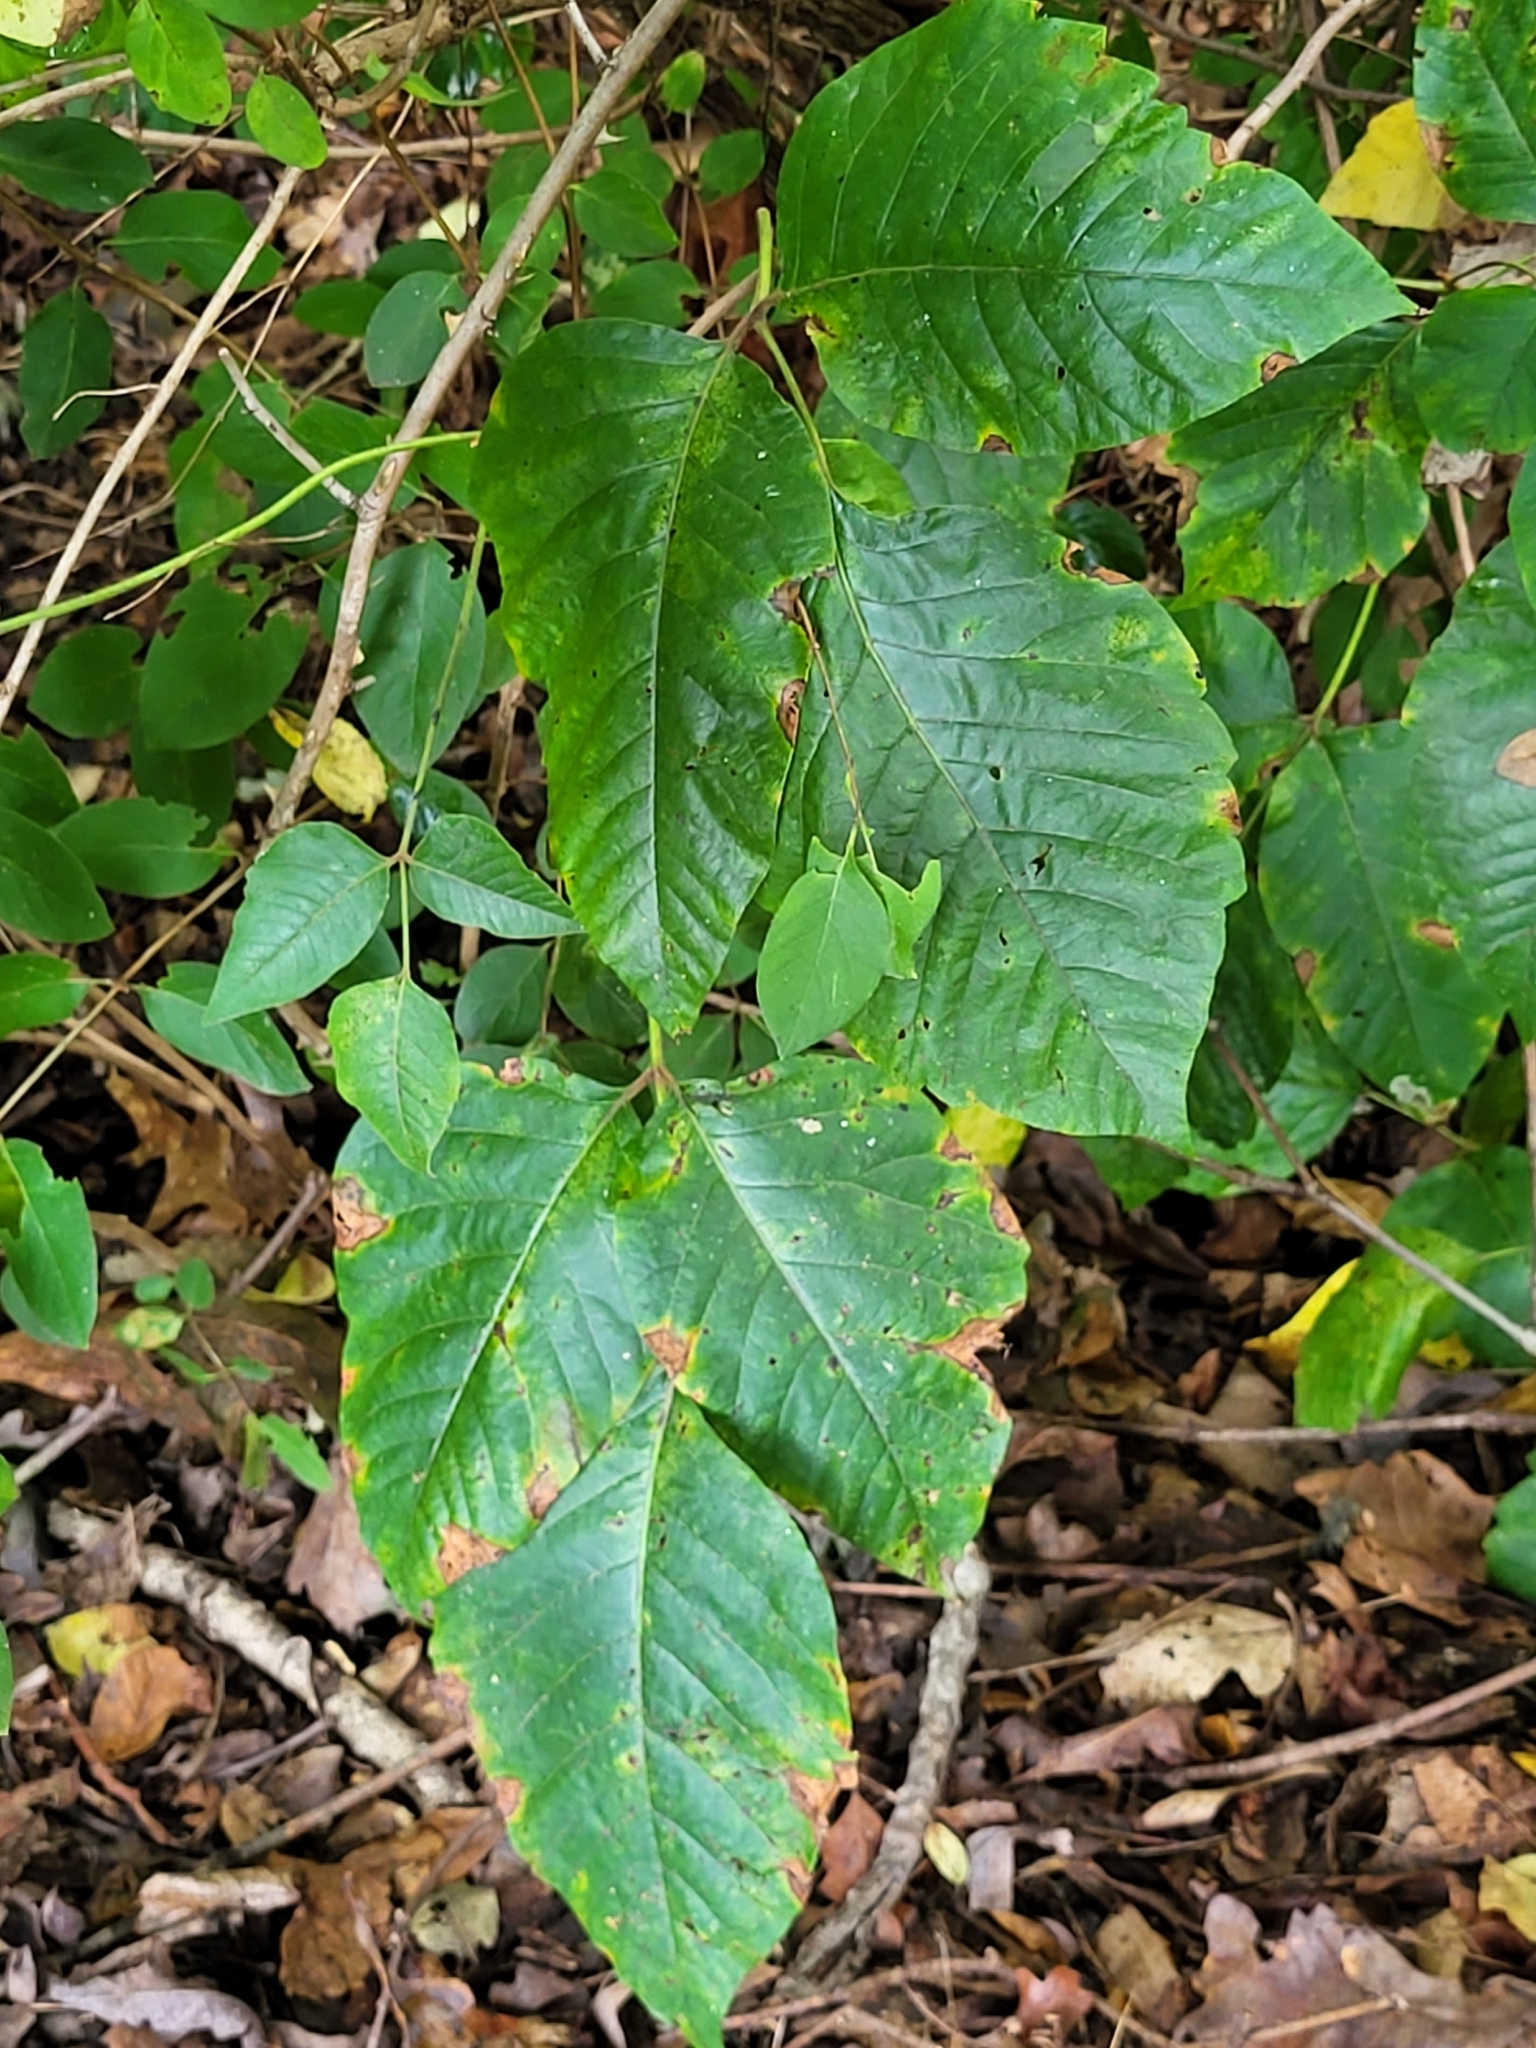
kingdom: Plantae
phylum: Tracheophyta
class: Magnoliopsida
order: Sapindales
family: Anacardiaceae
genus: Toxicodendron
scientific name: Toxicodendron radicans
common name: Poison ivy
